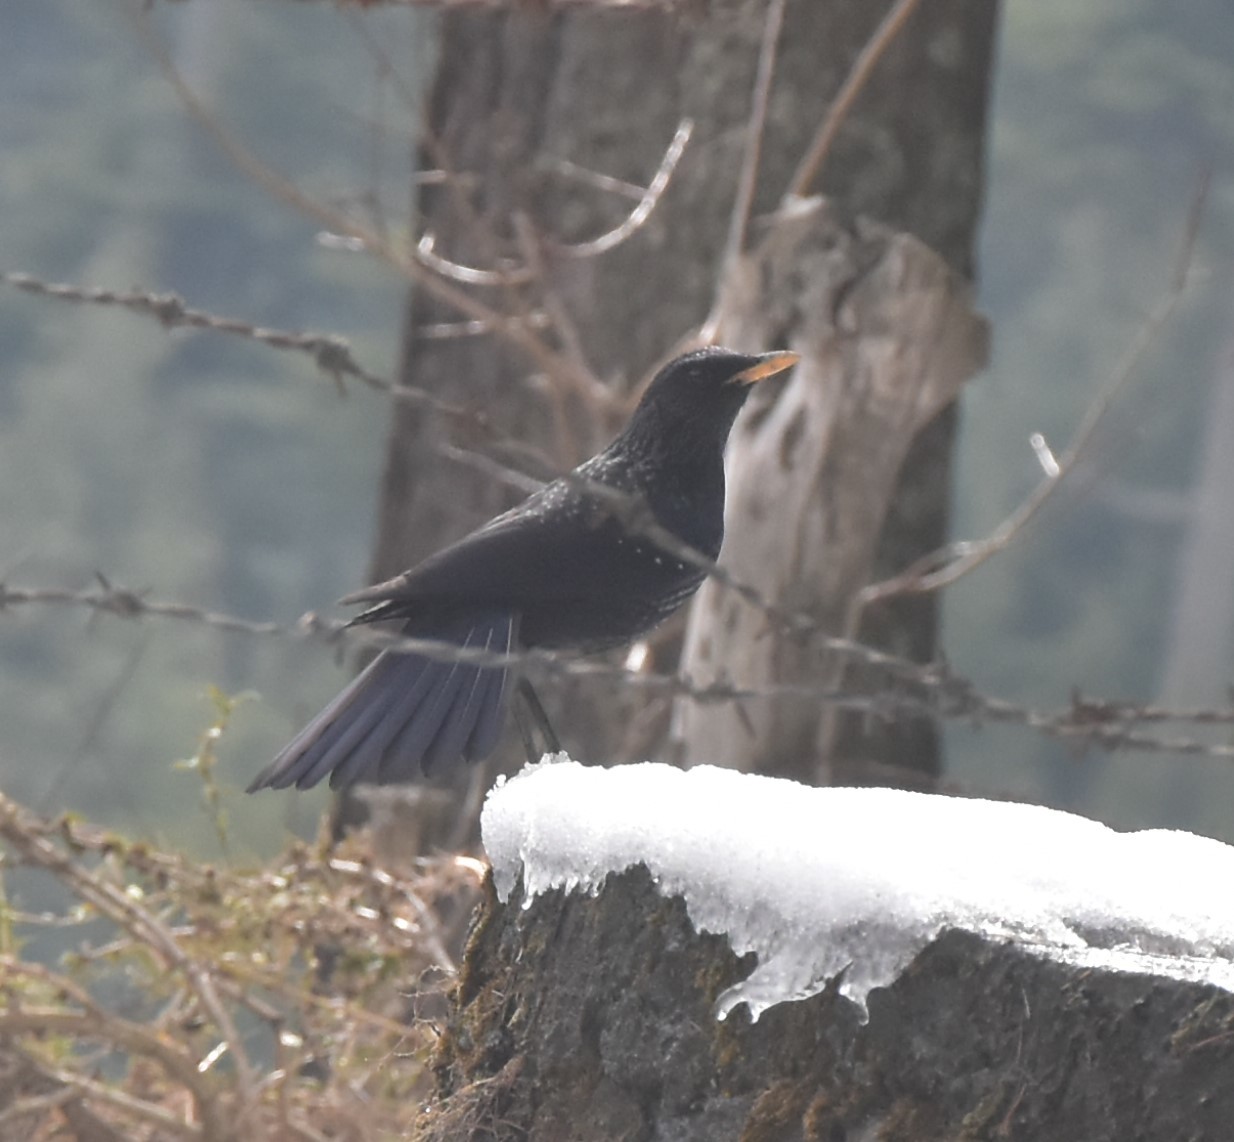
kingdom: Animalia
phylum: Chordata
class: Aves
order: Passeriformes
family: Muscicapidae
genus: Myophonus
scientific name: Myophonus caeruleus
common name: Blue whistling-thrush
